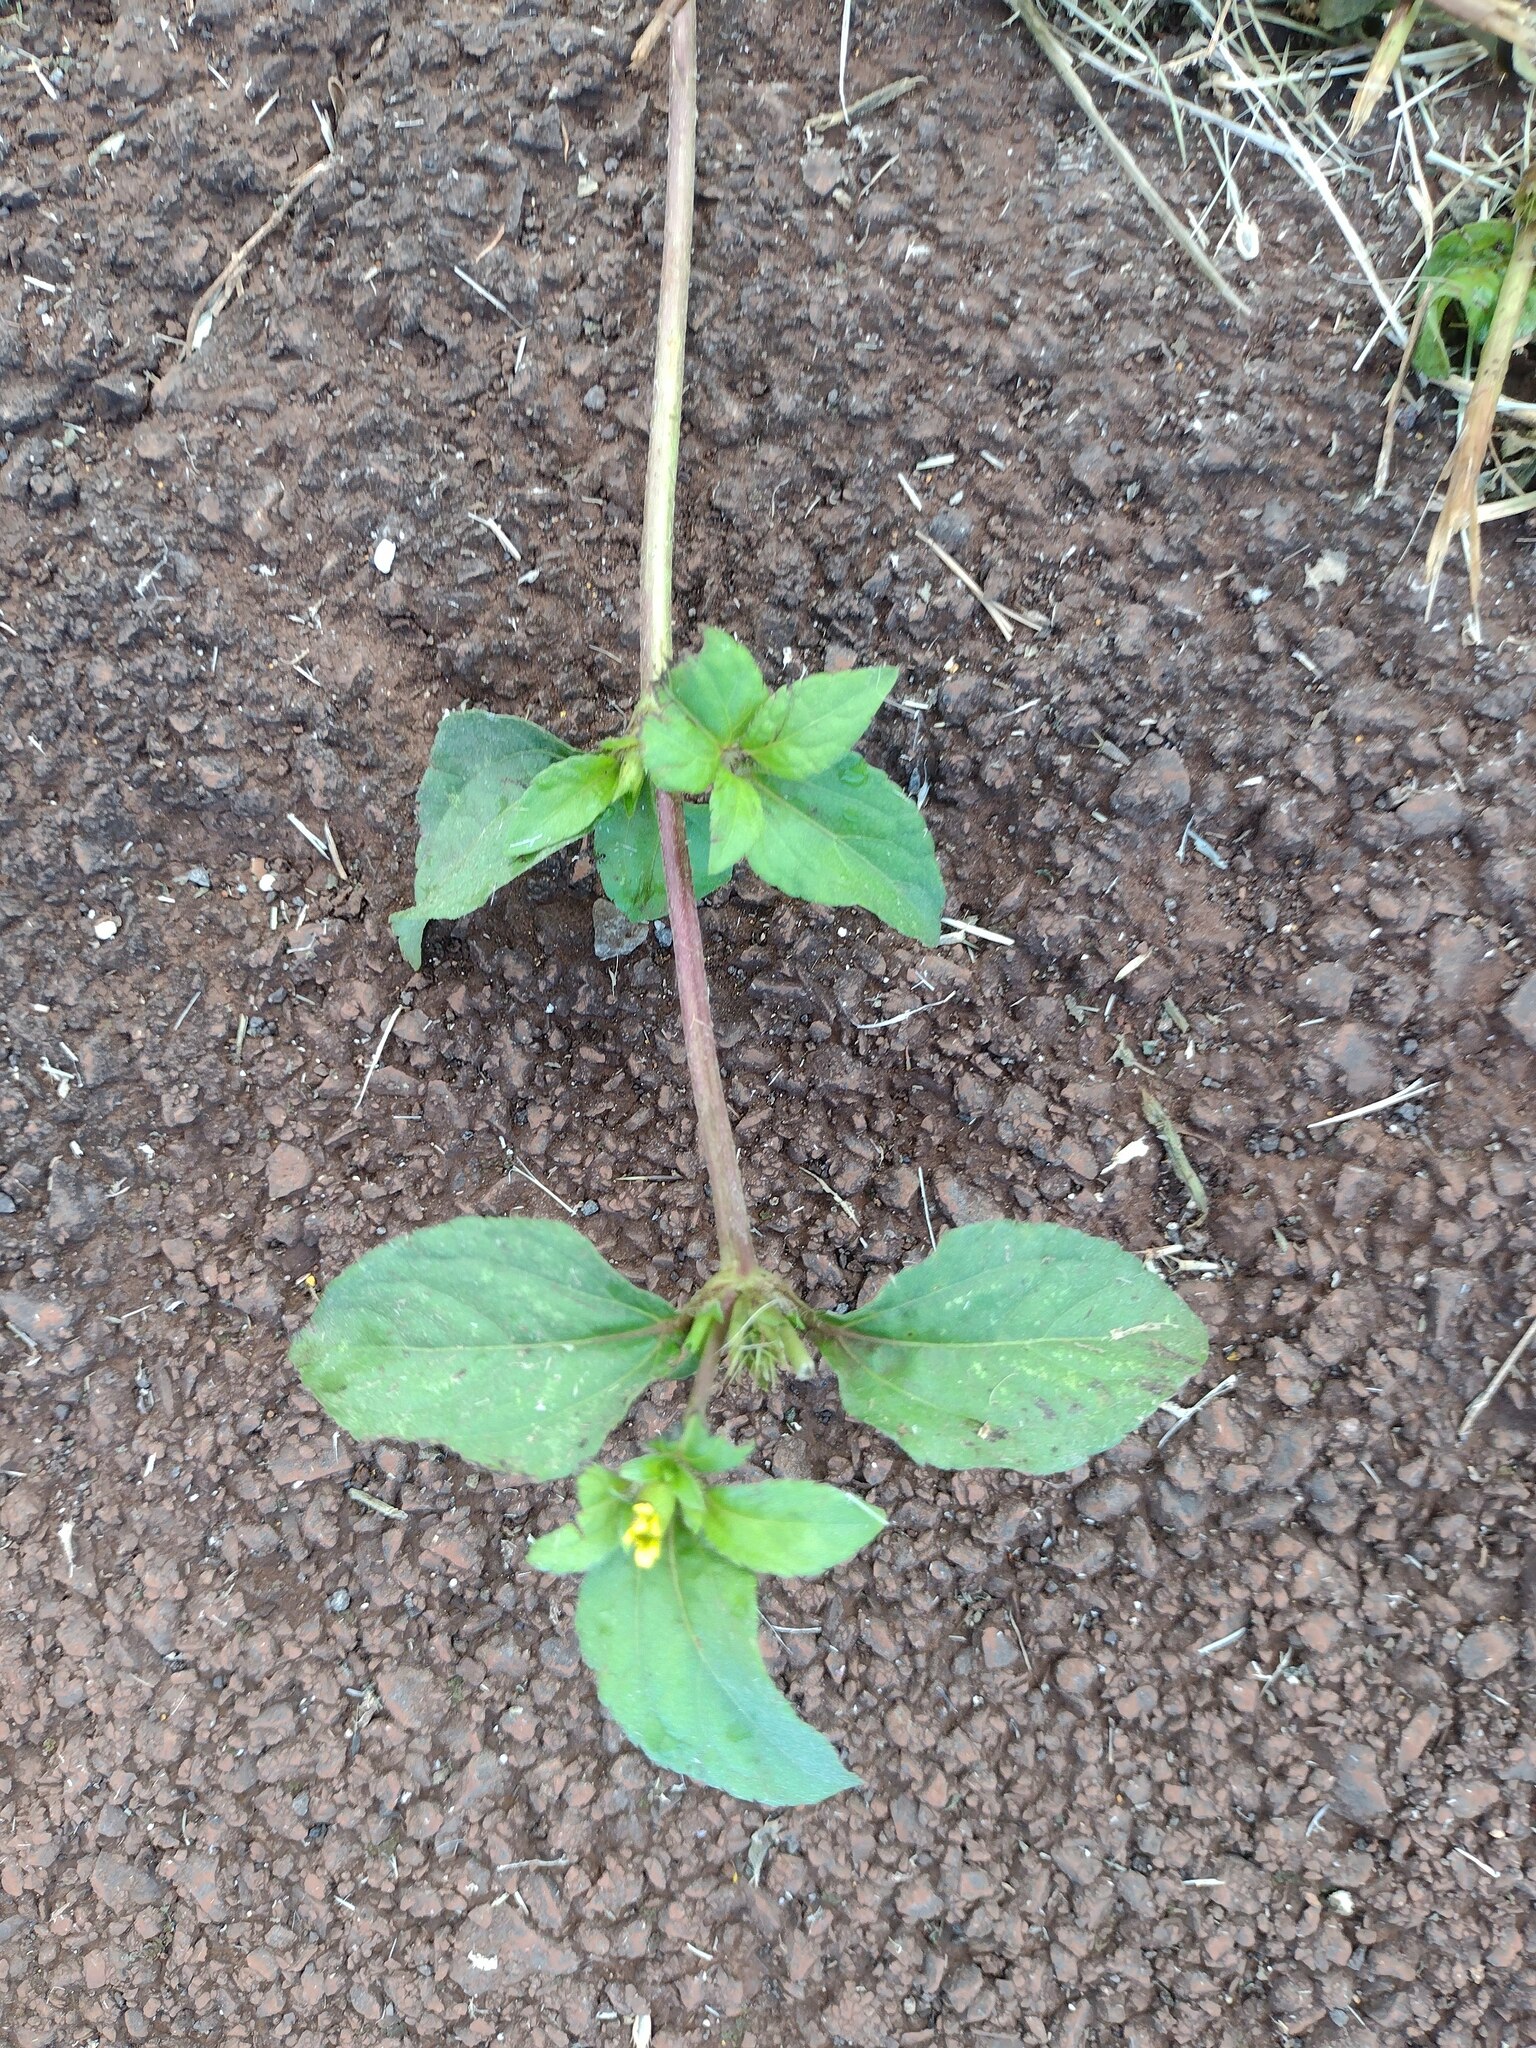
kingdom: Plantae
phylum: Tracheophyta
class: Magnoliopsida
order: Asterales
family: Asteraceae
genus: Synedrella
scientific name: Synedrella nodiflora
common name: Nodeweed
